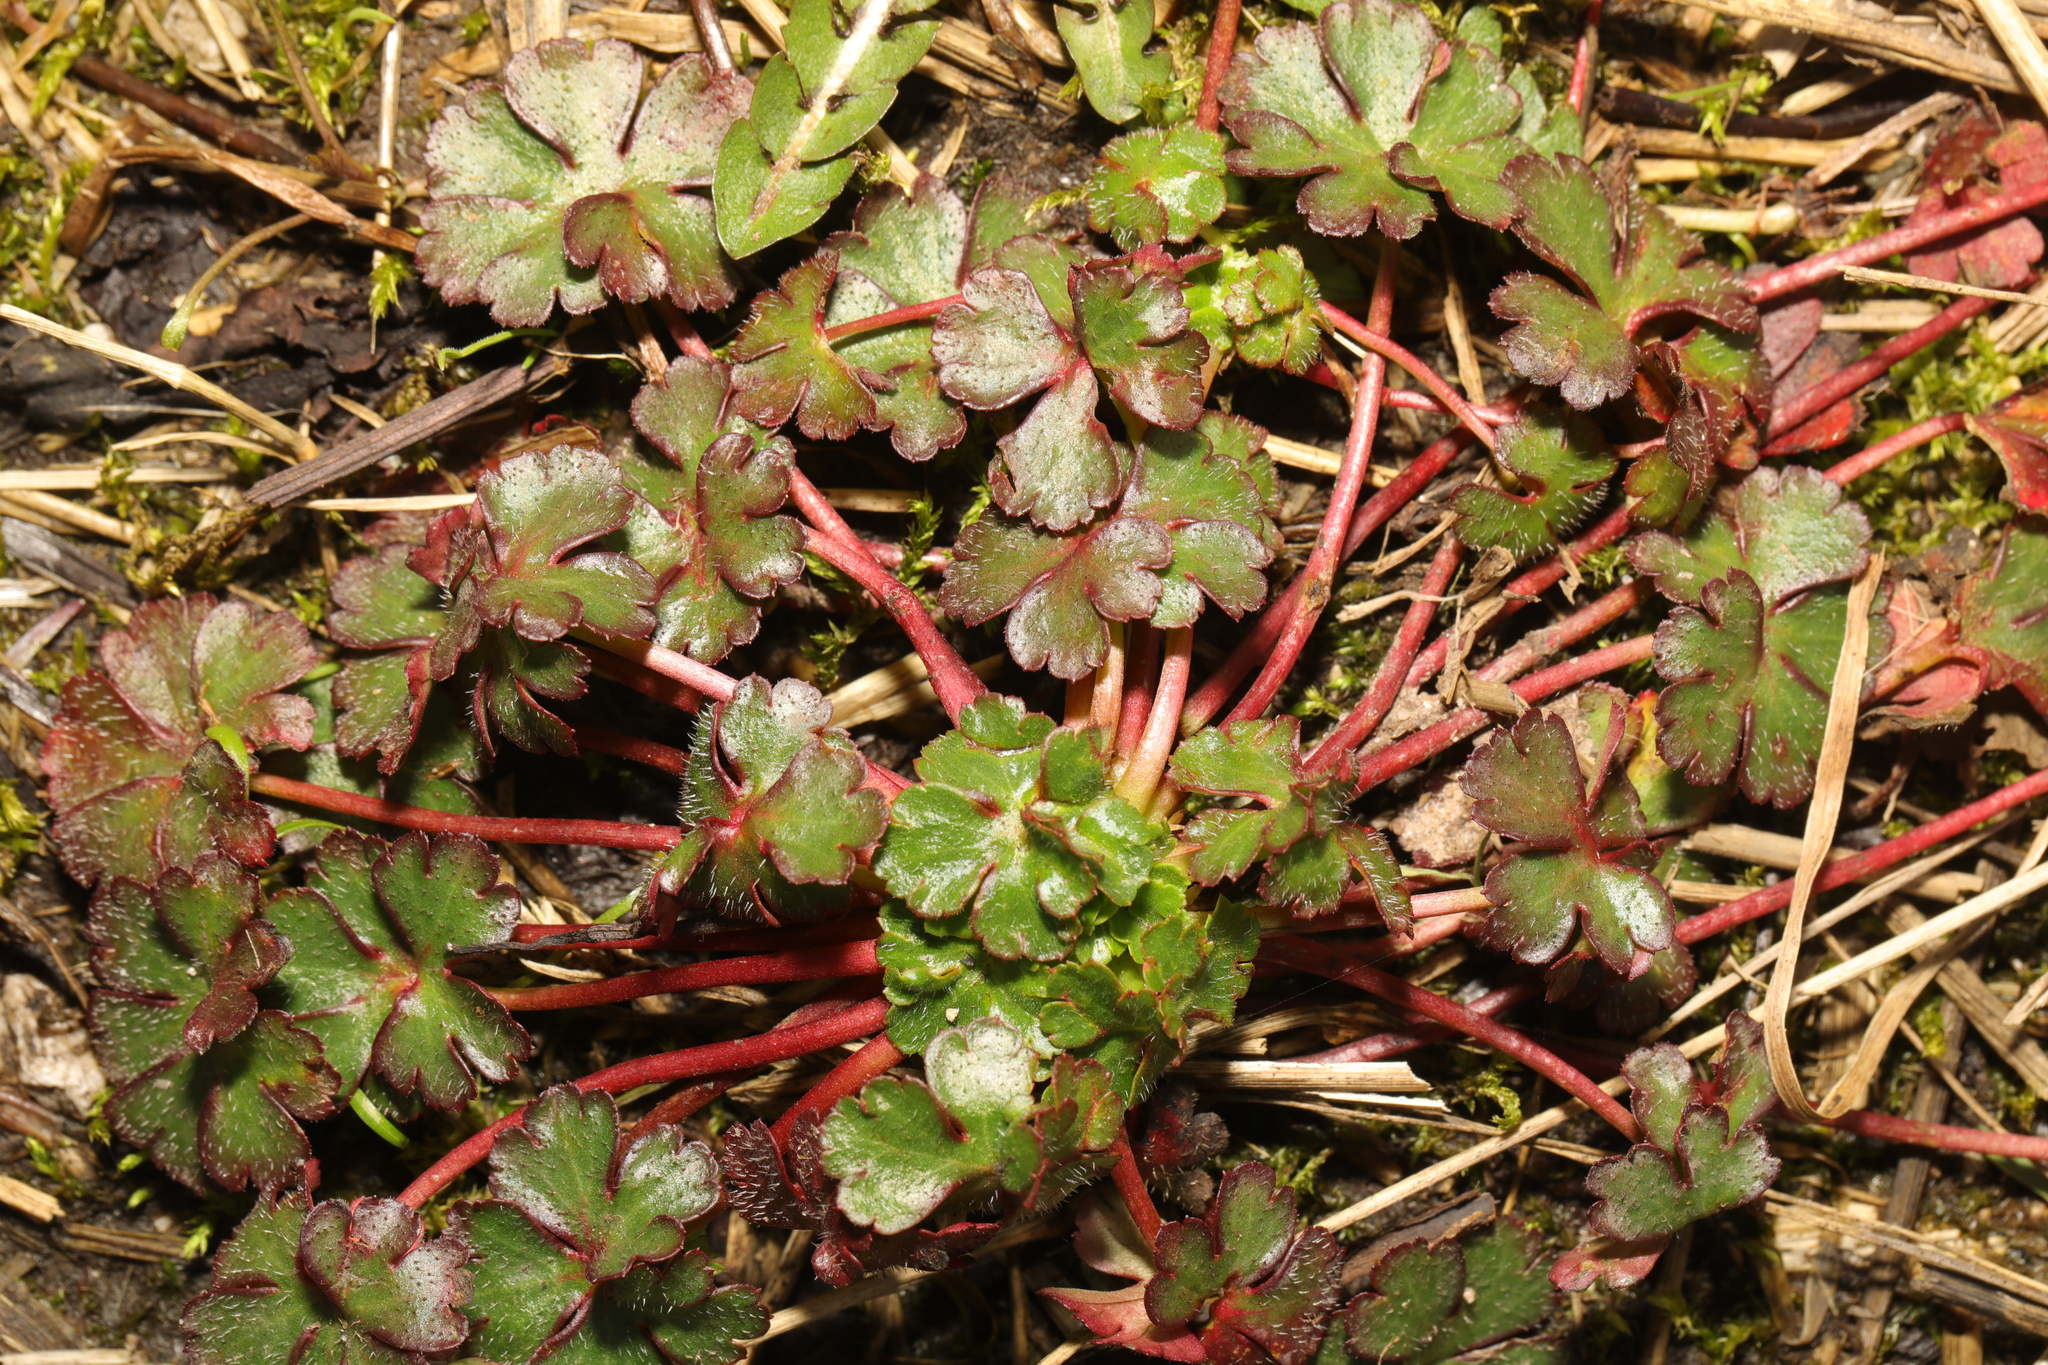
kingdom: Plantae
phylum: Tracheophyta
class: Magnoliopsida
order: Geraniales
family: Geraniaceae
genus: Geranium
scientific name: Geranium lucidum
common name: Shining crane's-bill
